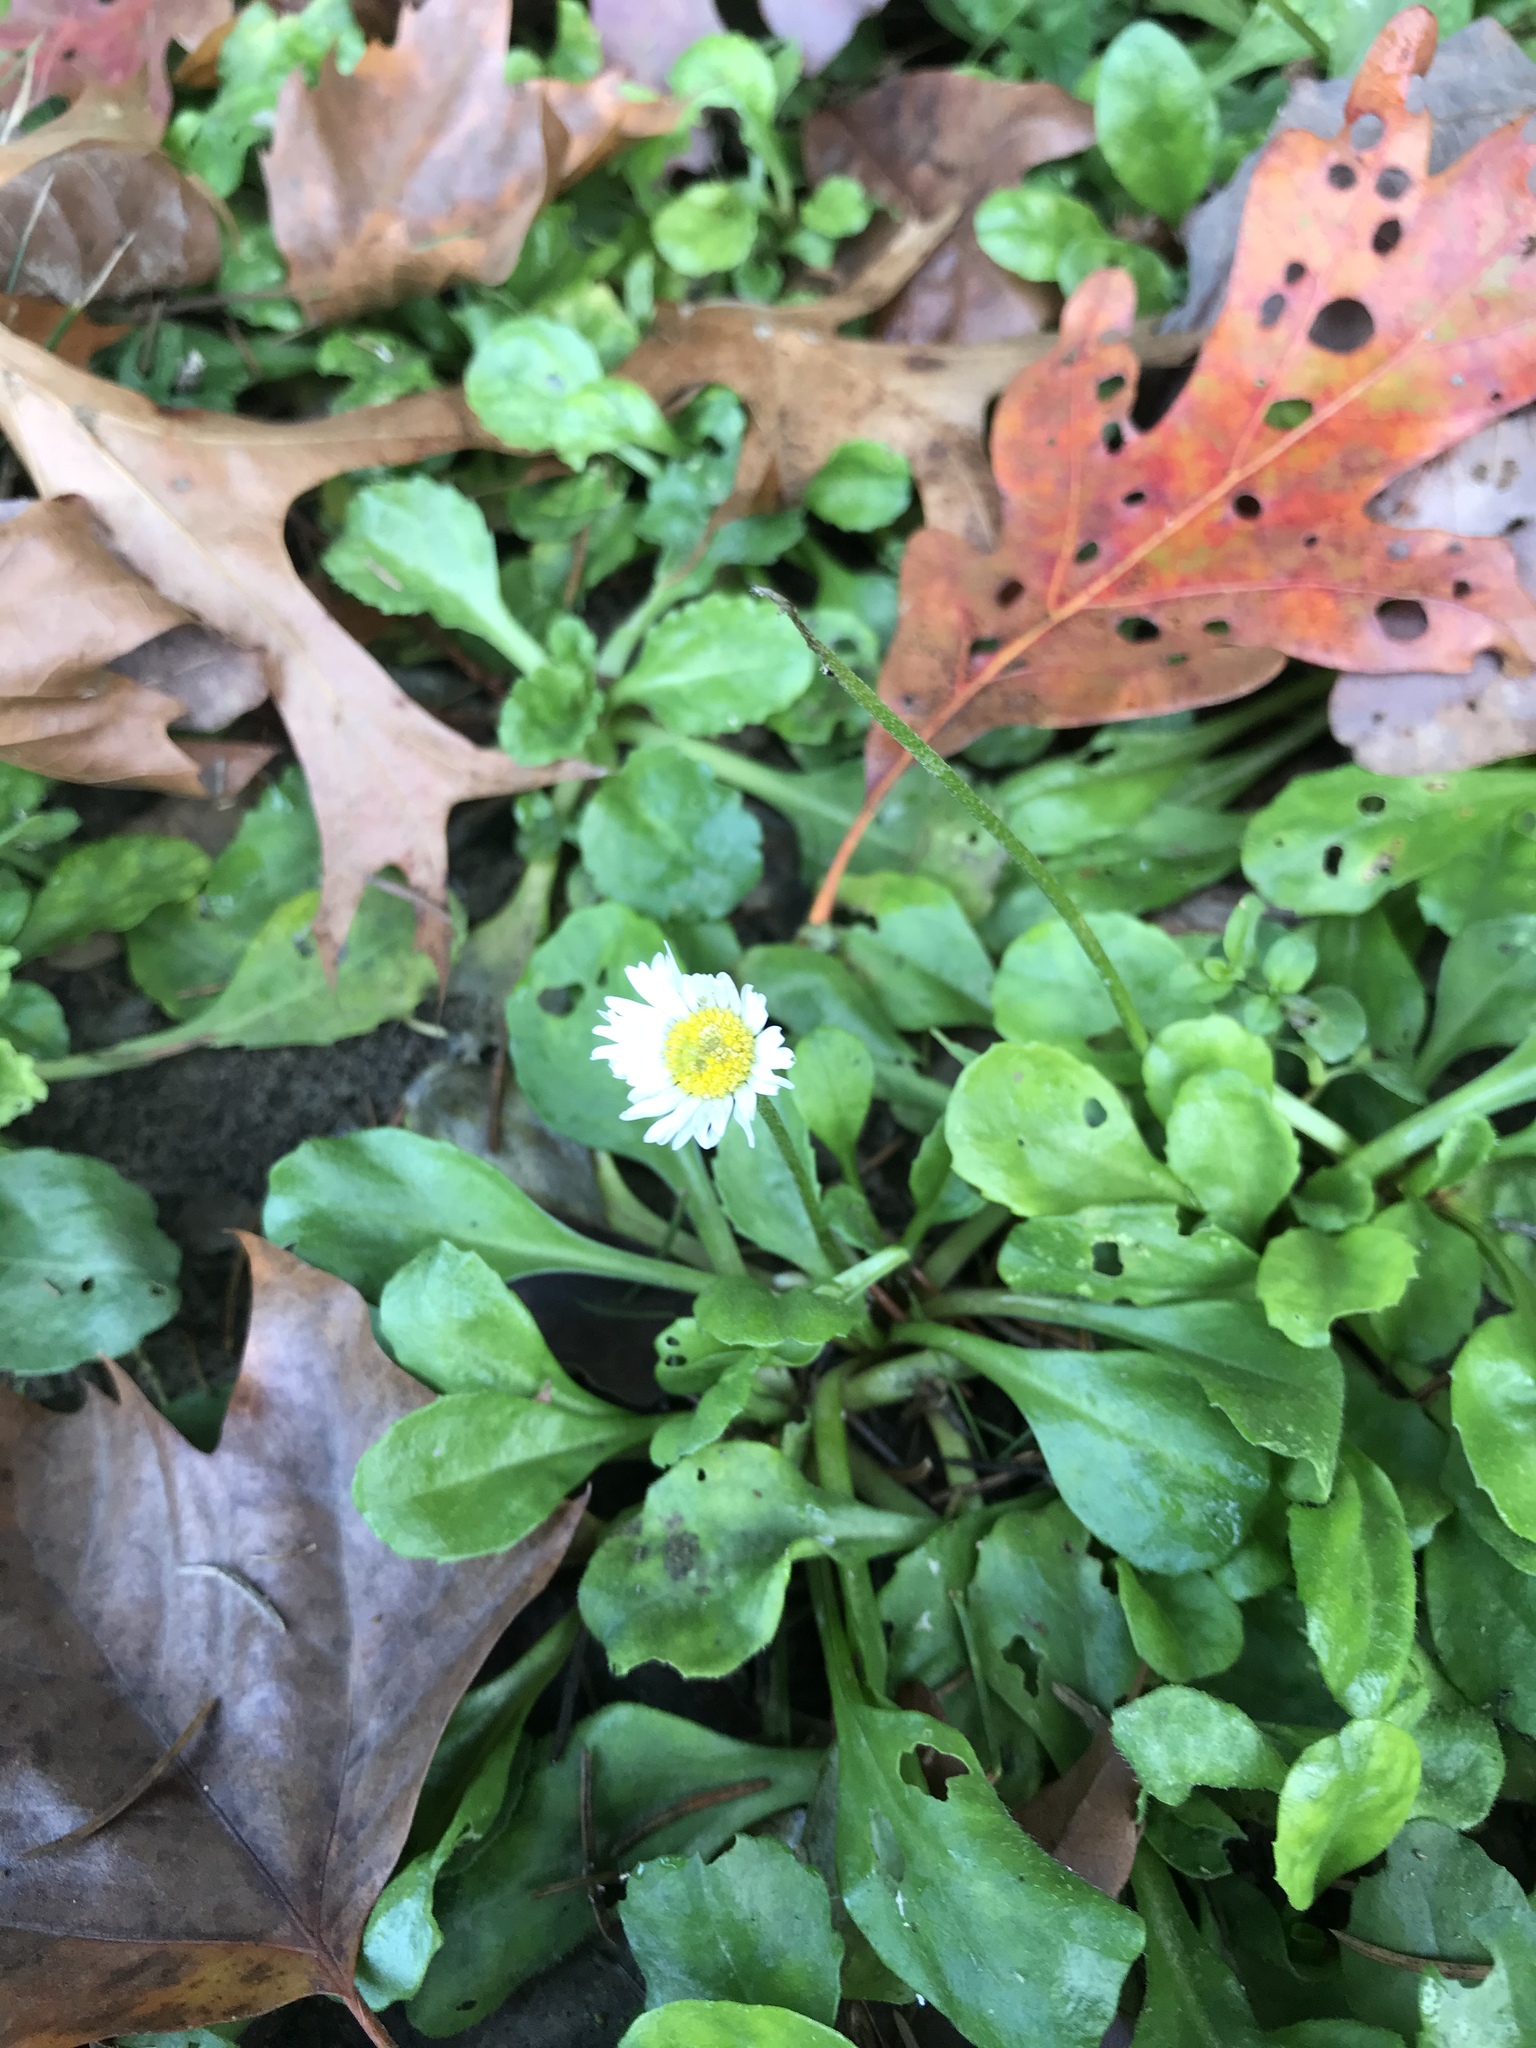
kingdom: Plantae
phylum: Tracheophyta
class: Magnoliopsida
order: Asterales
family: Asteraceae
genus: Bellis
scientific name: Bellis perennis
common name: Lawndaisy
